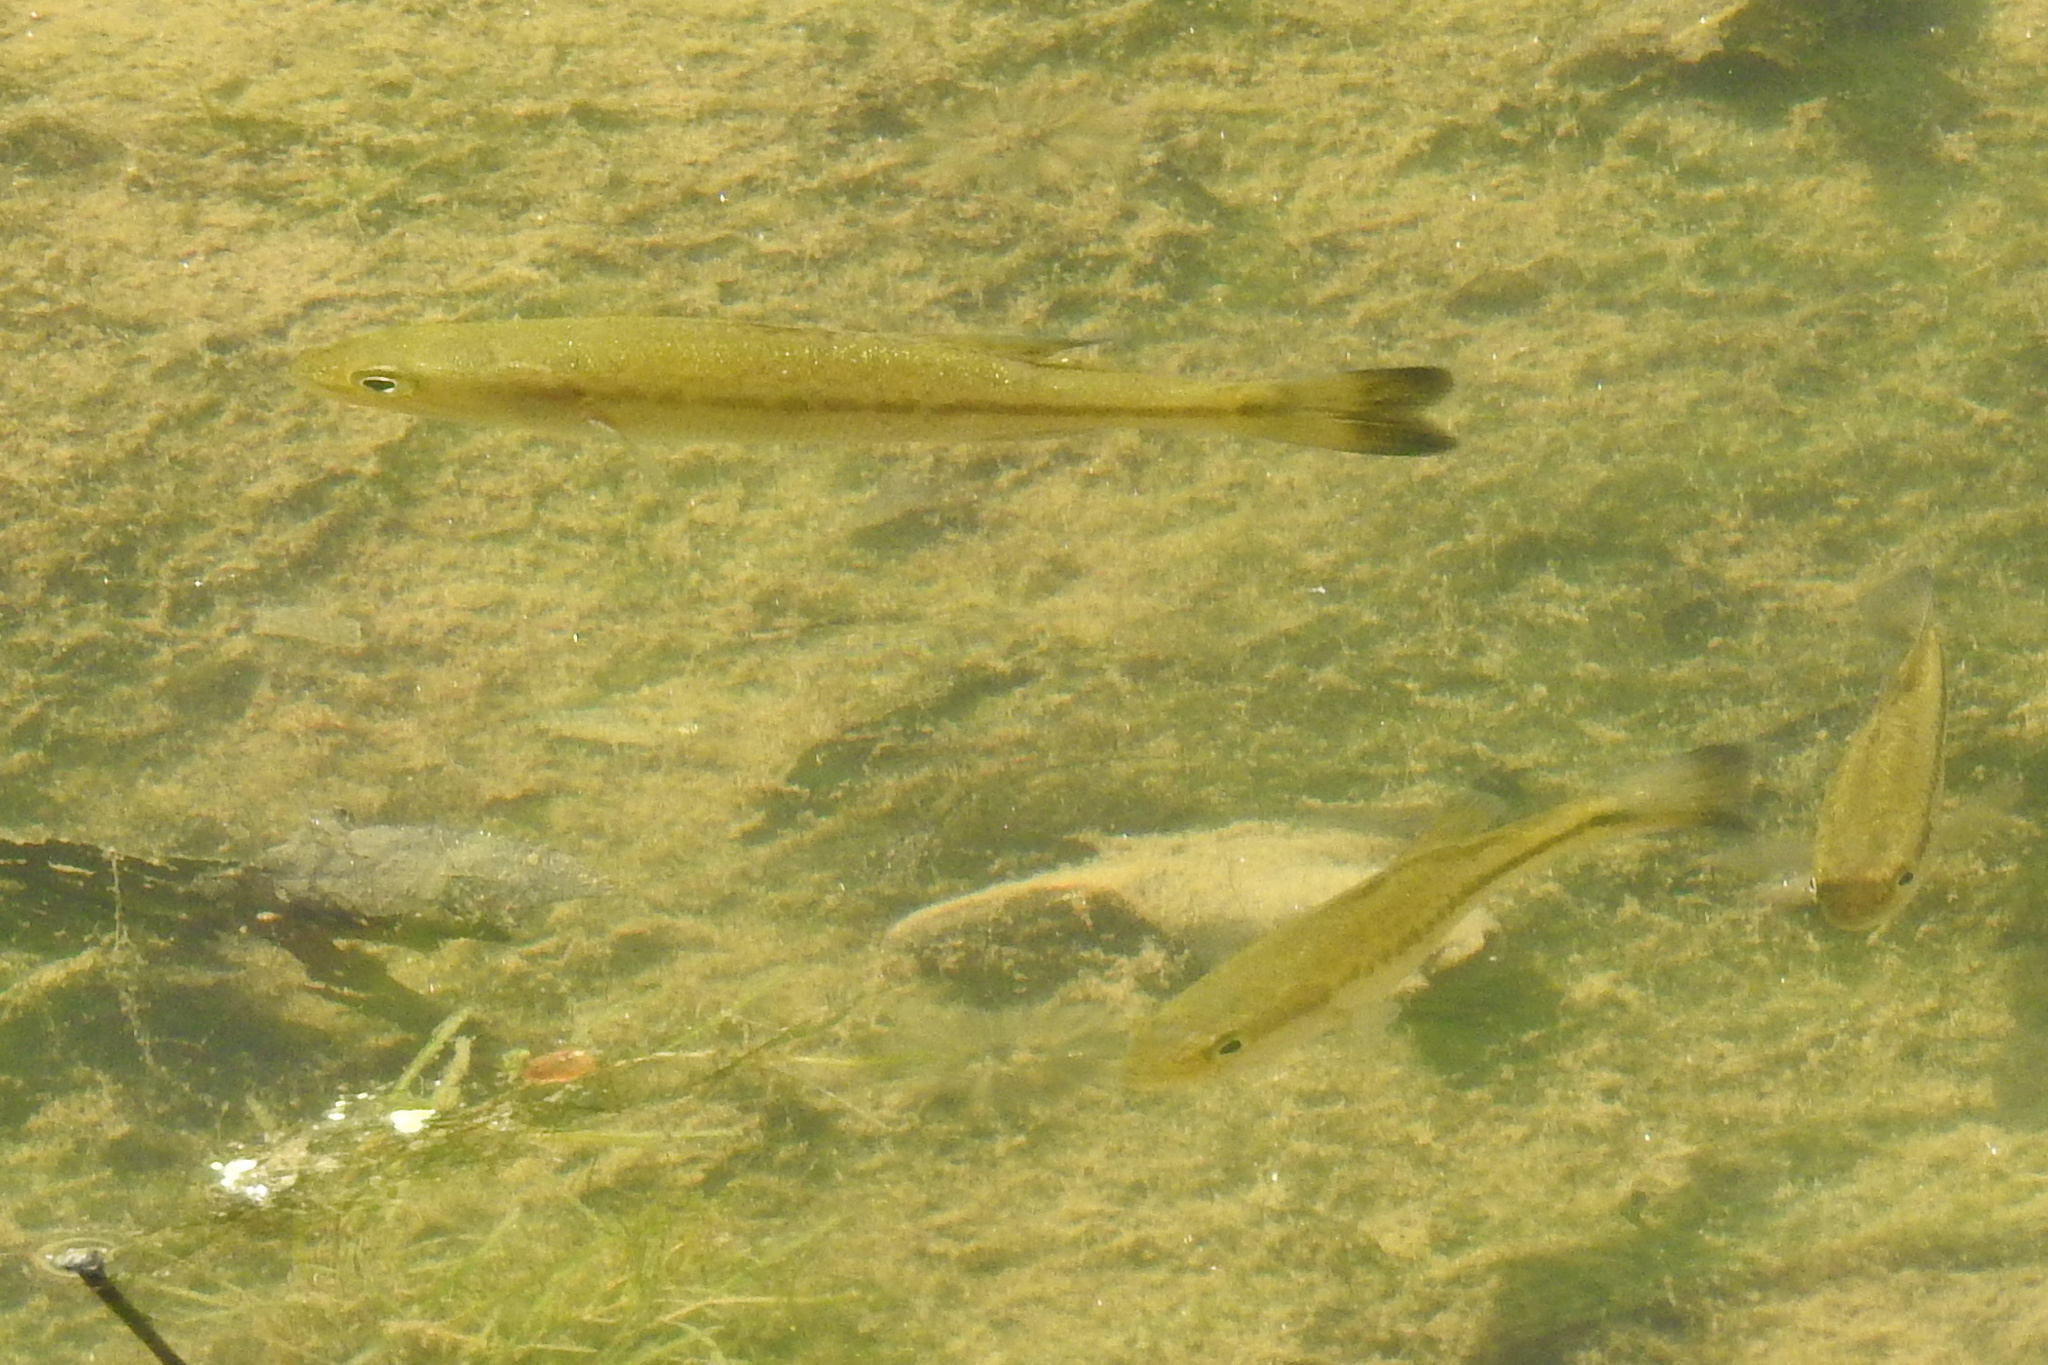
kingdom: Animalia
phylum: Chordata
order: Perciformes
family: Centrarchidae
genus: Micropterus
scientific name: Micropterus
